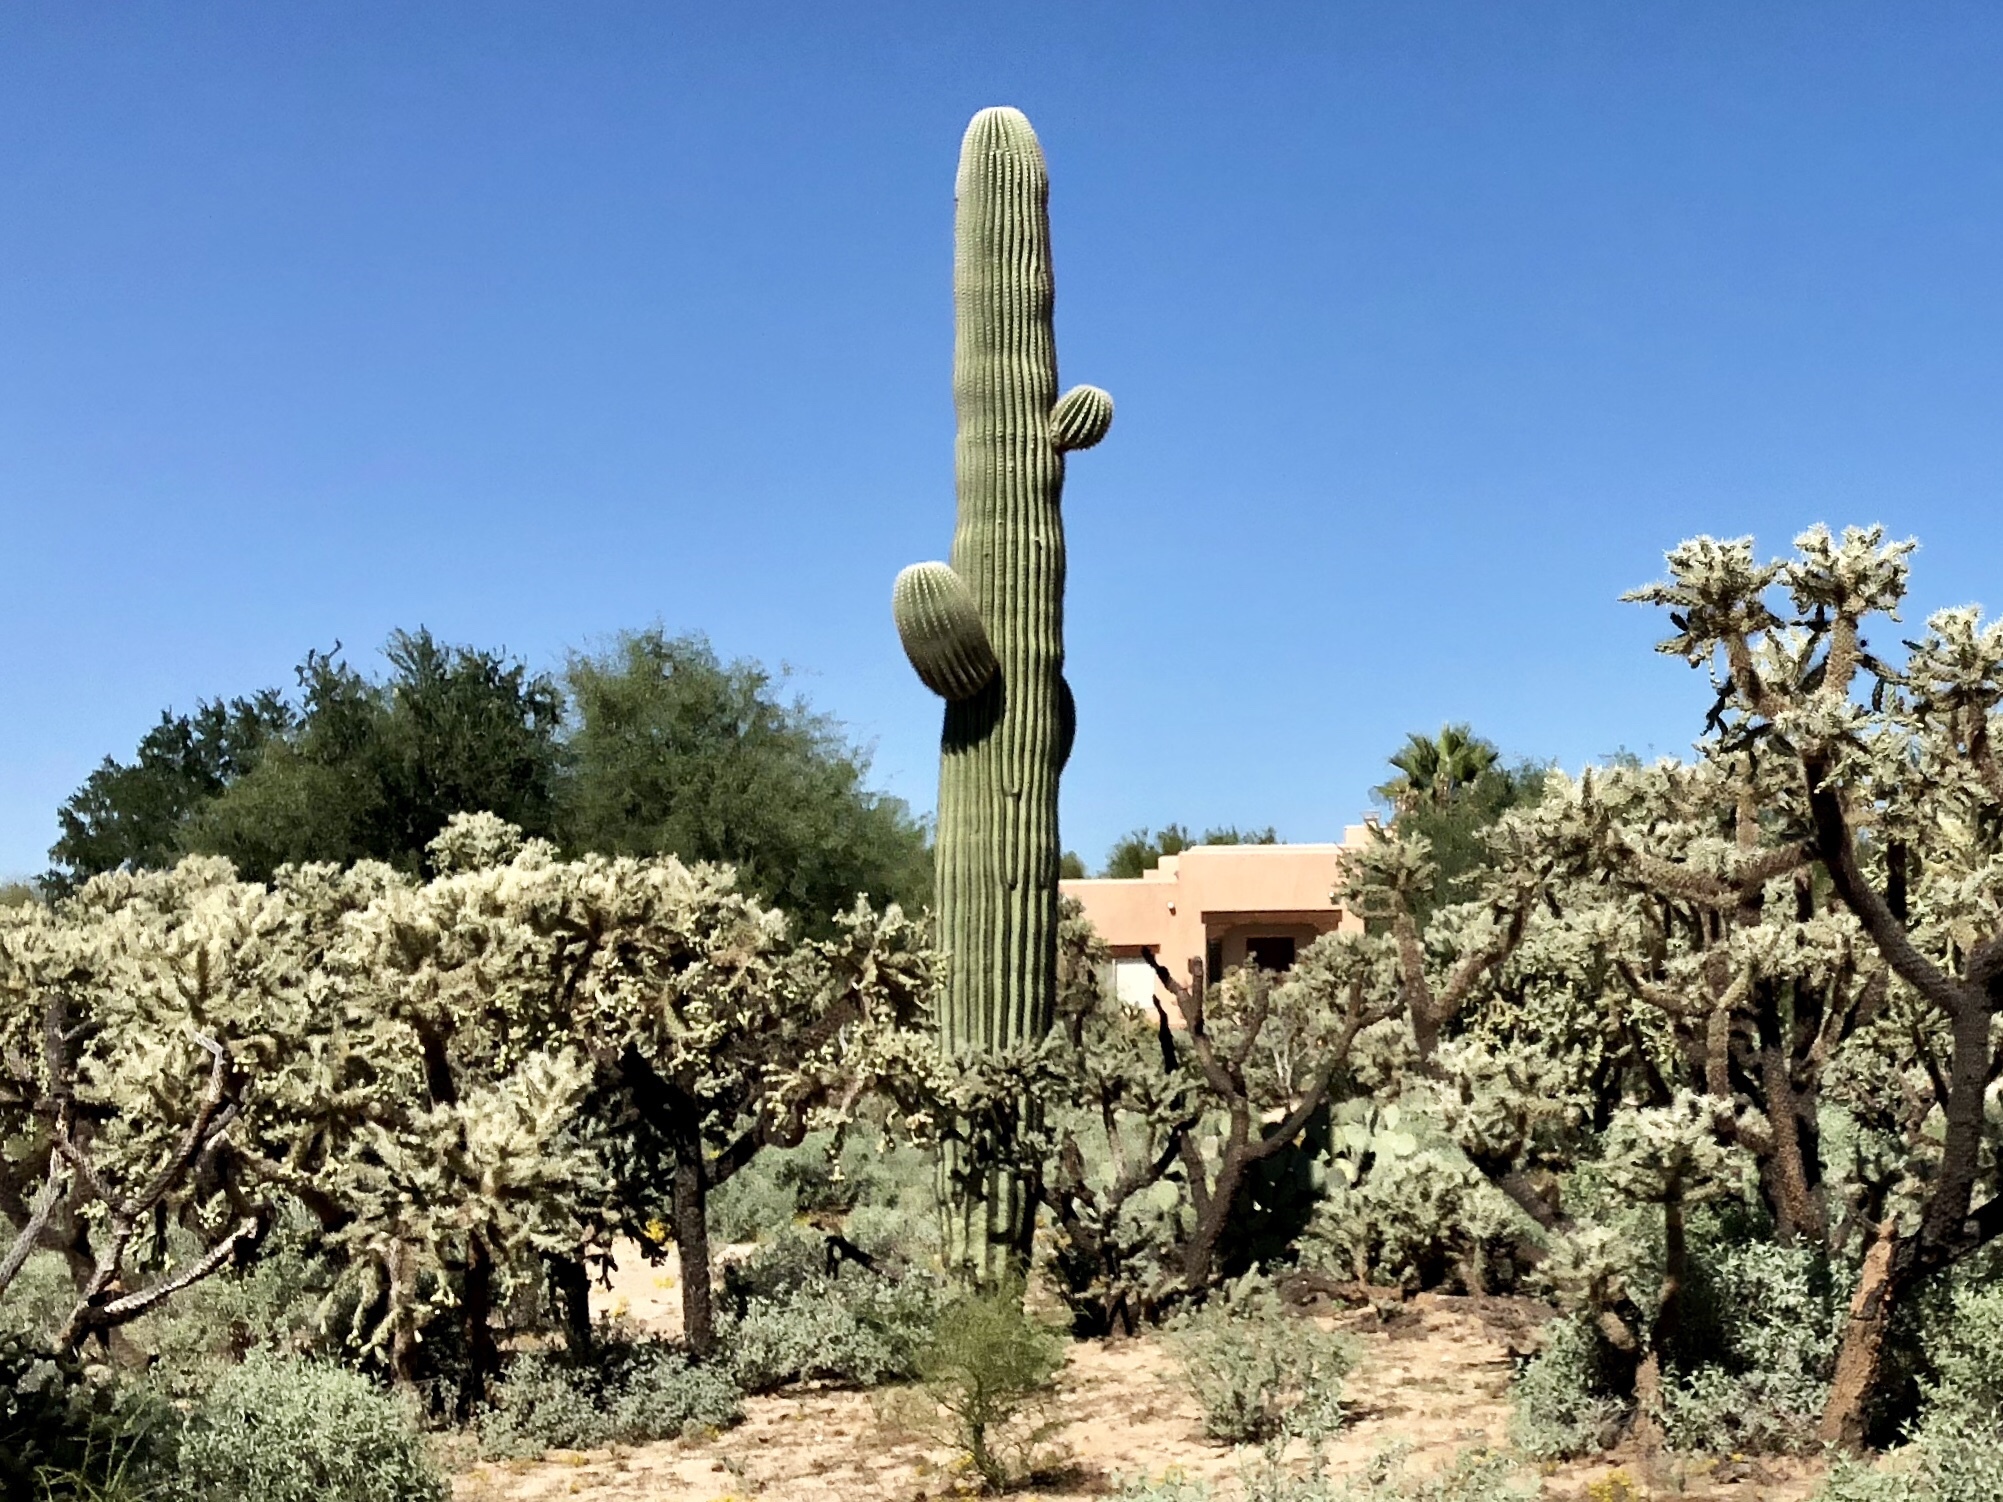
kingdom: Plantae
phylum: Tracheophyta
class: Magnoliopsida
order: Caryophyllales
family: Cactaceae
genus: Carnegiea
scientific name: Carnegiea gigantea
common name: Saguaro
